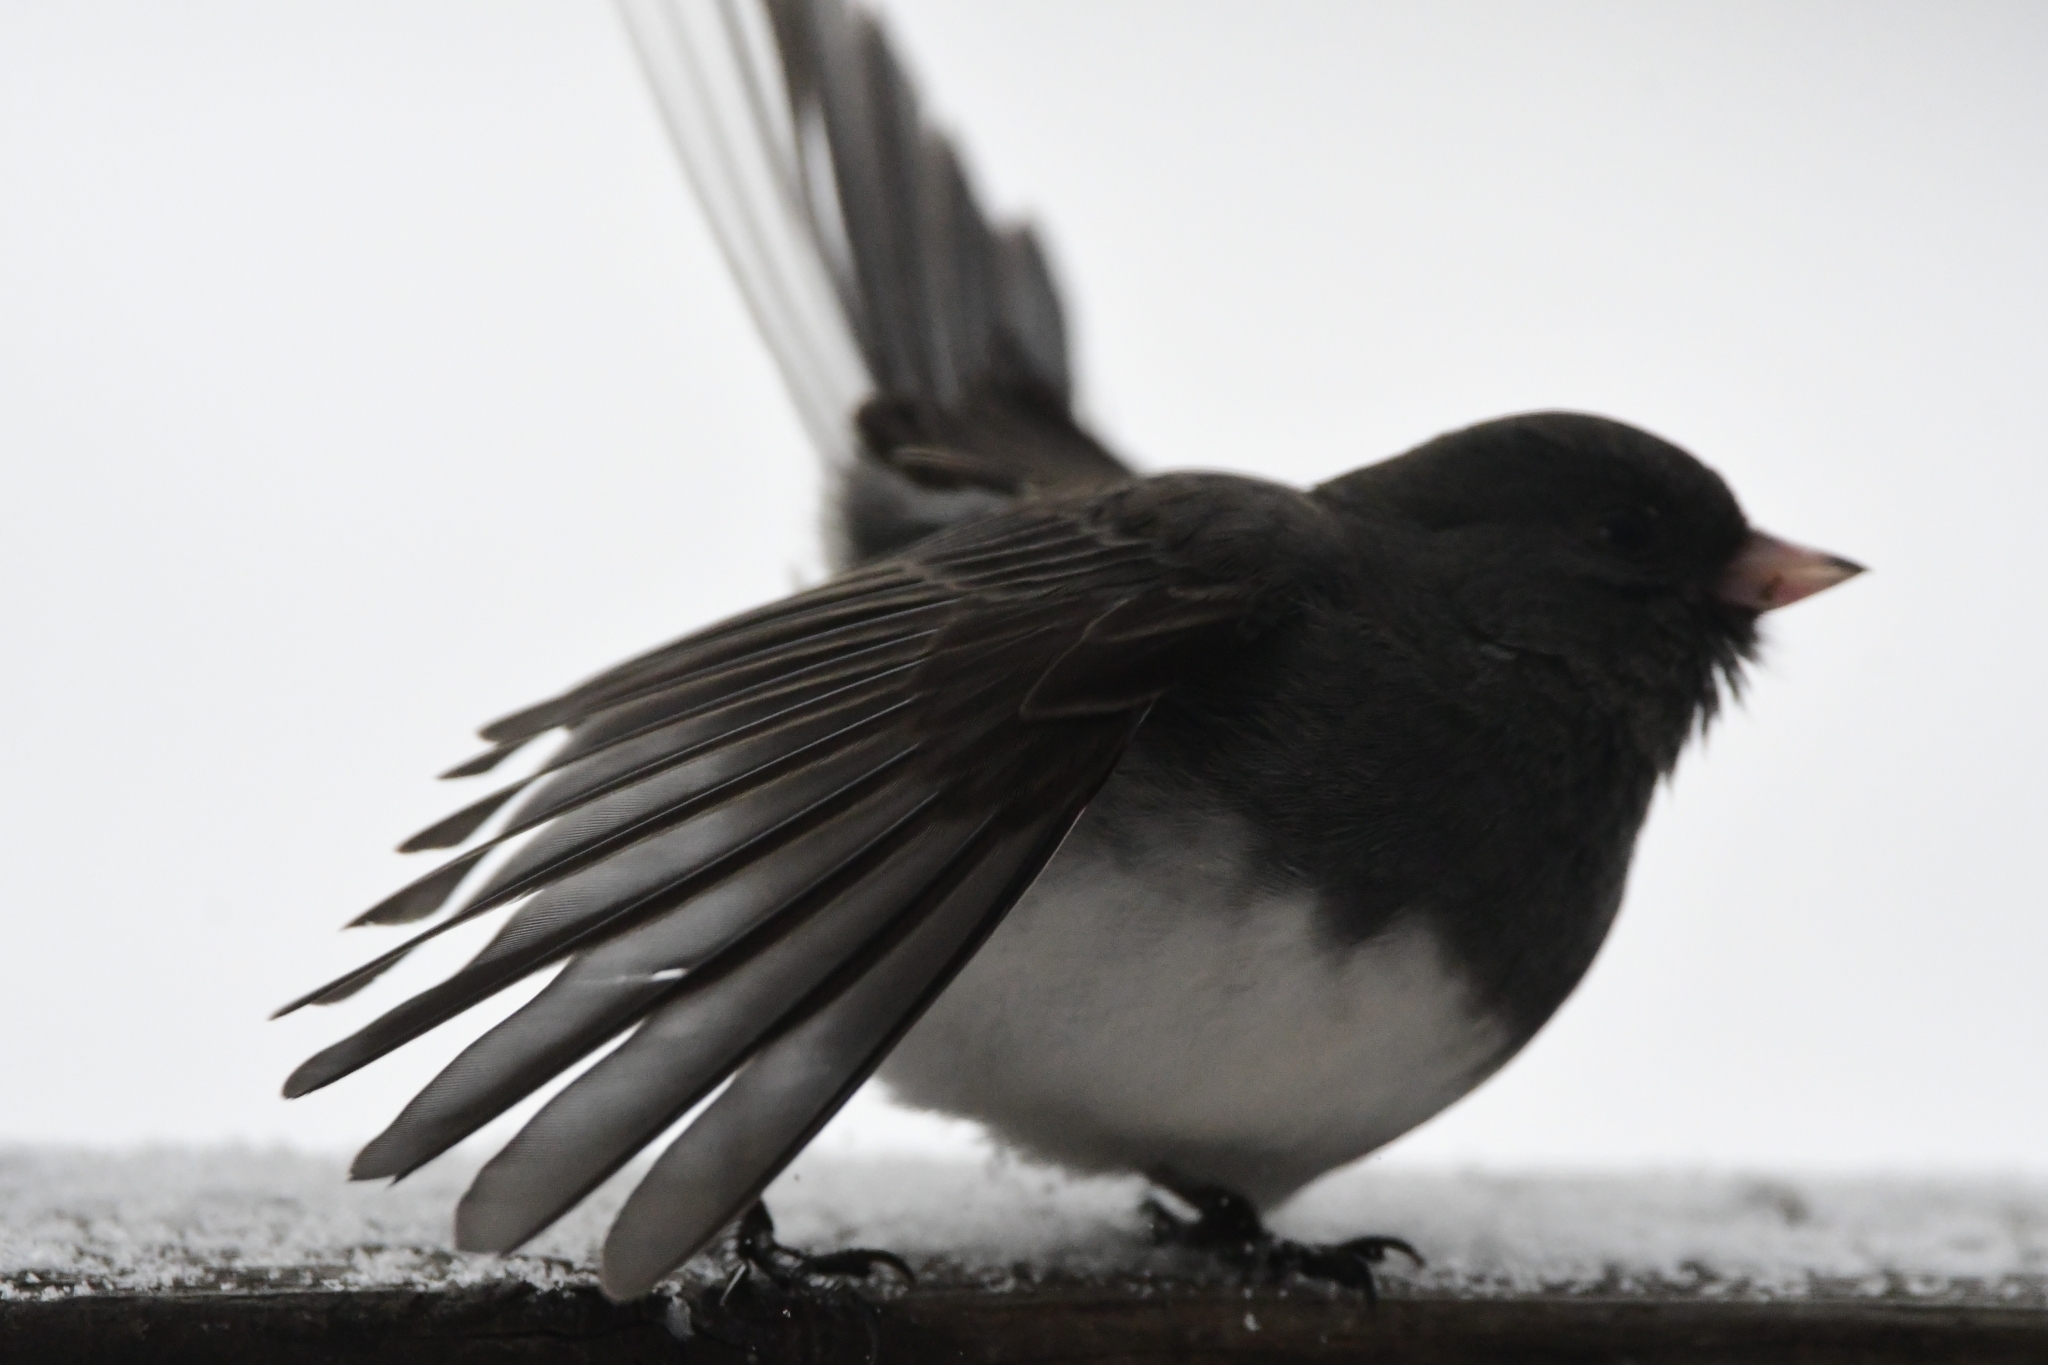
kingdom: Animalia
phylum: Chordata
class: Aves
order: Passeriformes
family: Passerellidae
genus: Junco
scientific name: Junco hyemalis
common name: Dark-eyed junco
